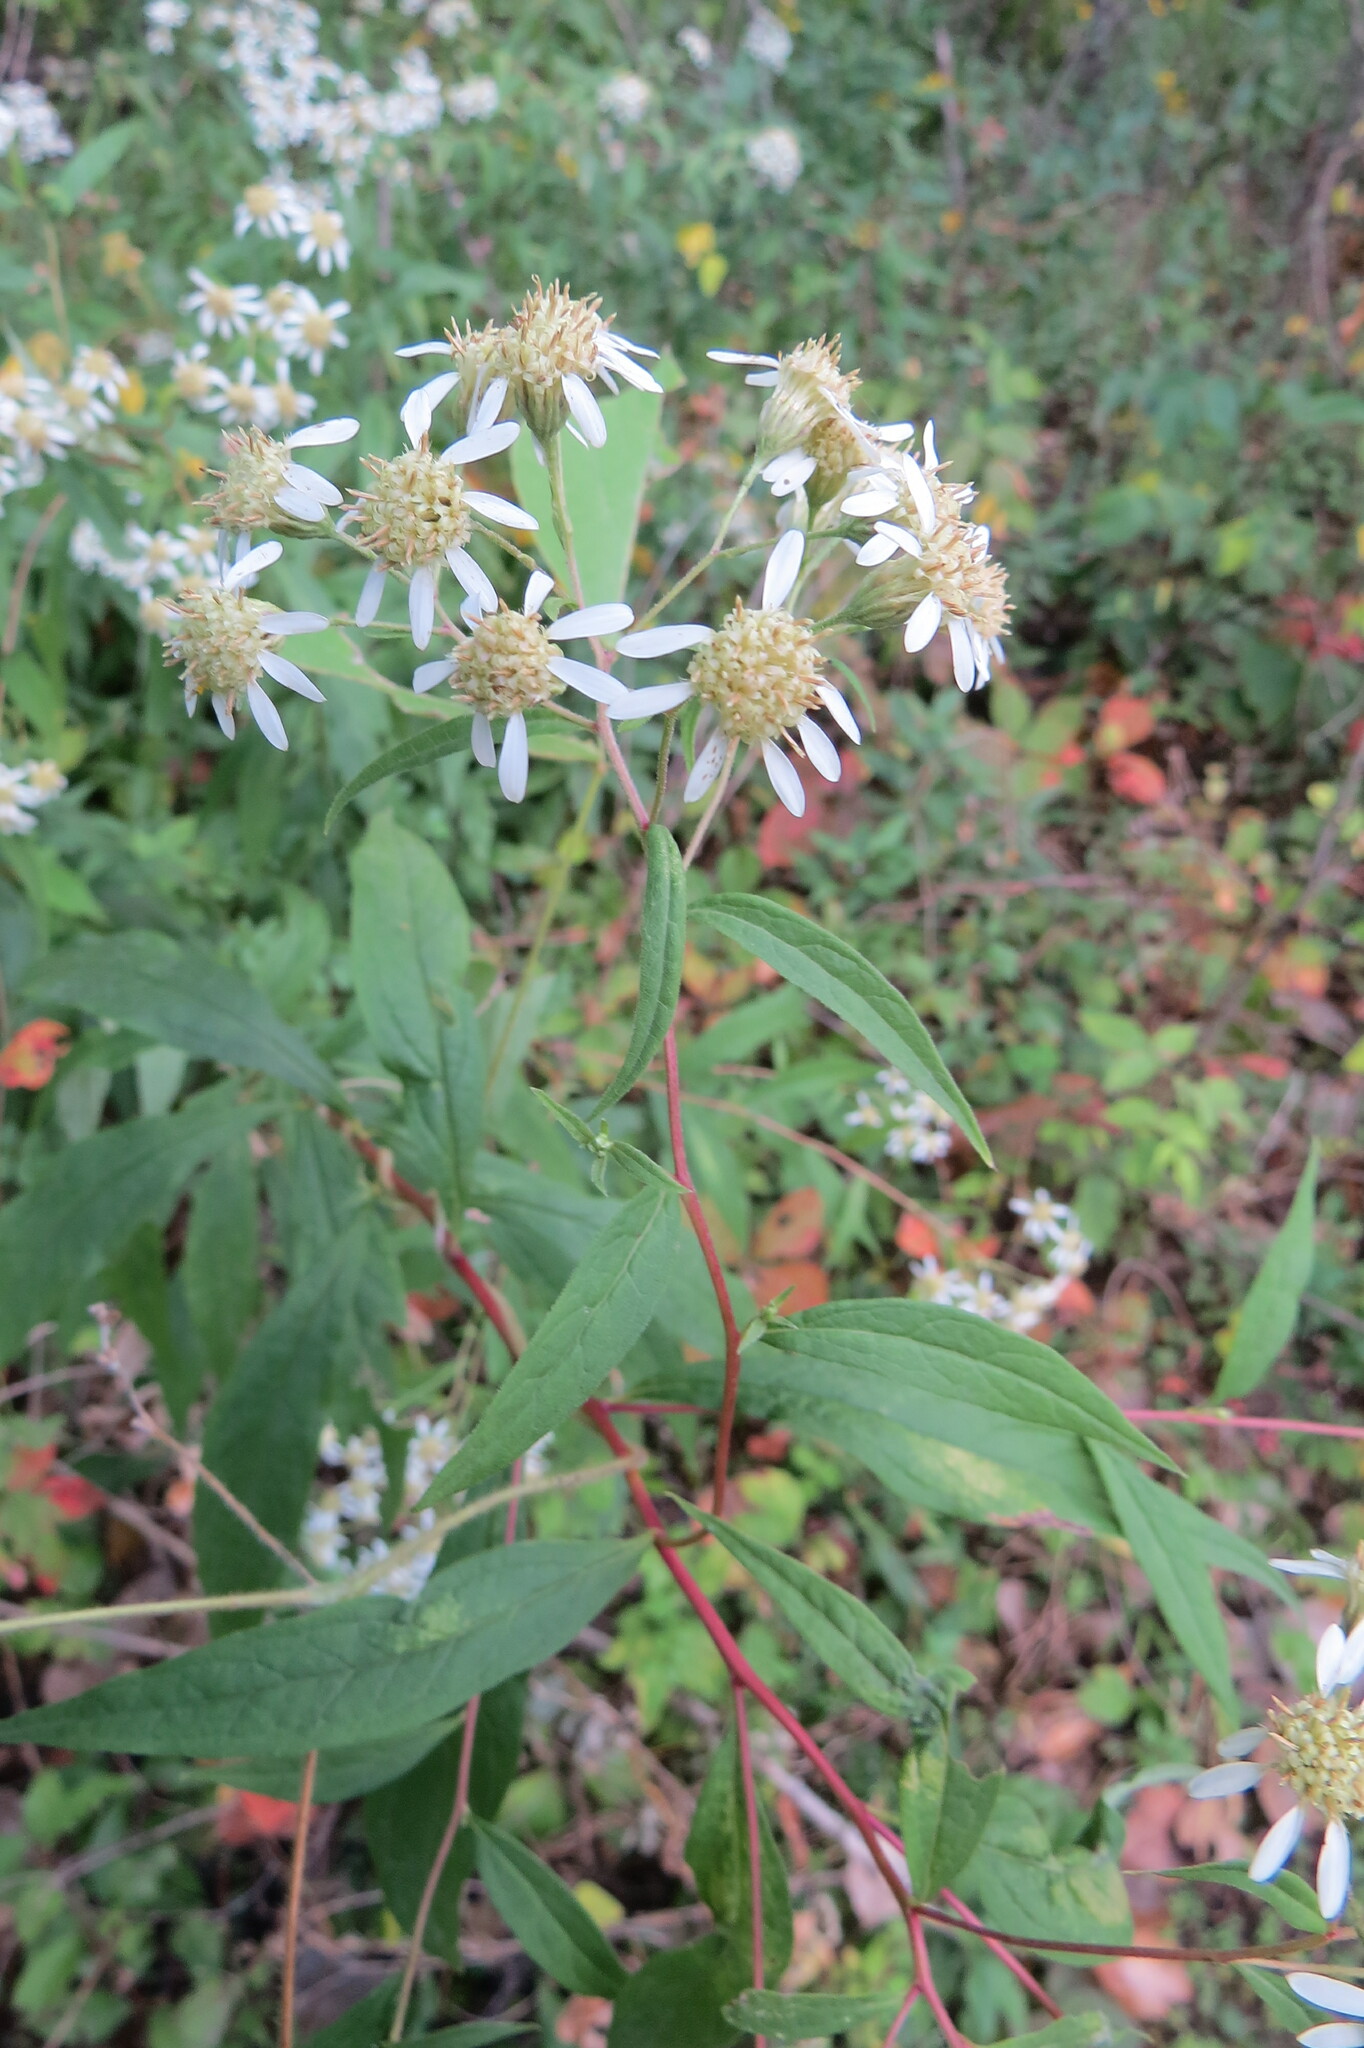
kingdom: Plantae
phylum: Tracheophyta
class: Magnoliopsida
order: Asterales
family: Asteraceae
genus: Doellingeria
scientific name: Doellingeria umbellata
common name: Flat-top white aster
